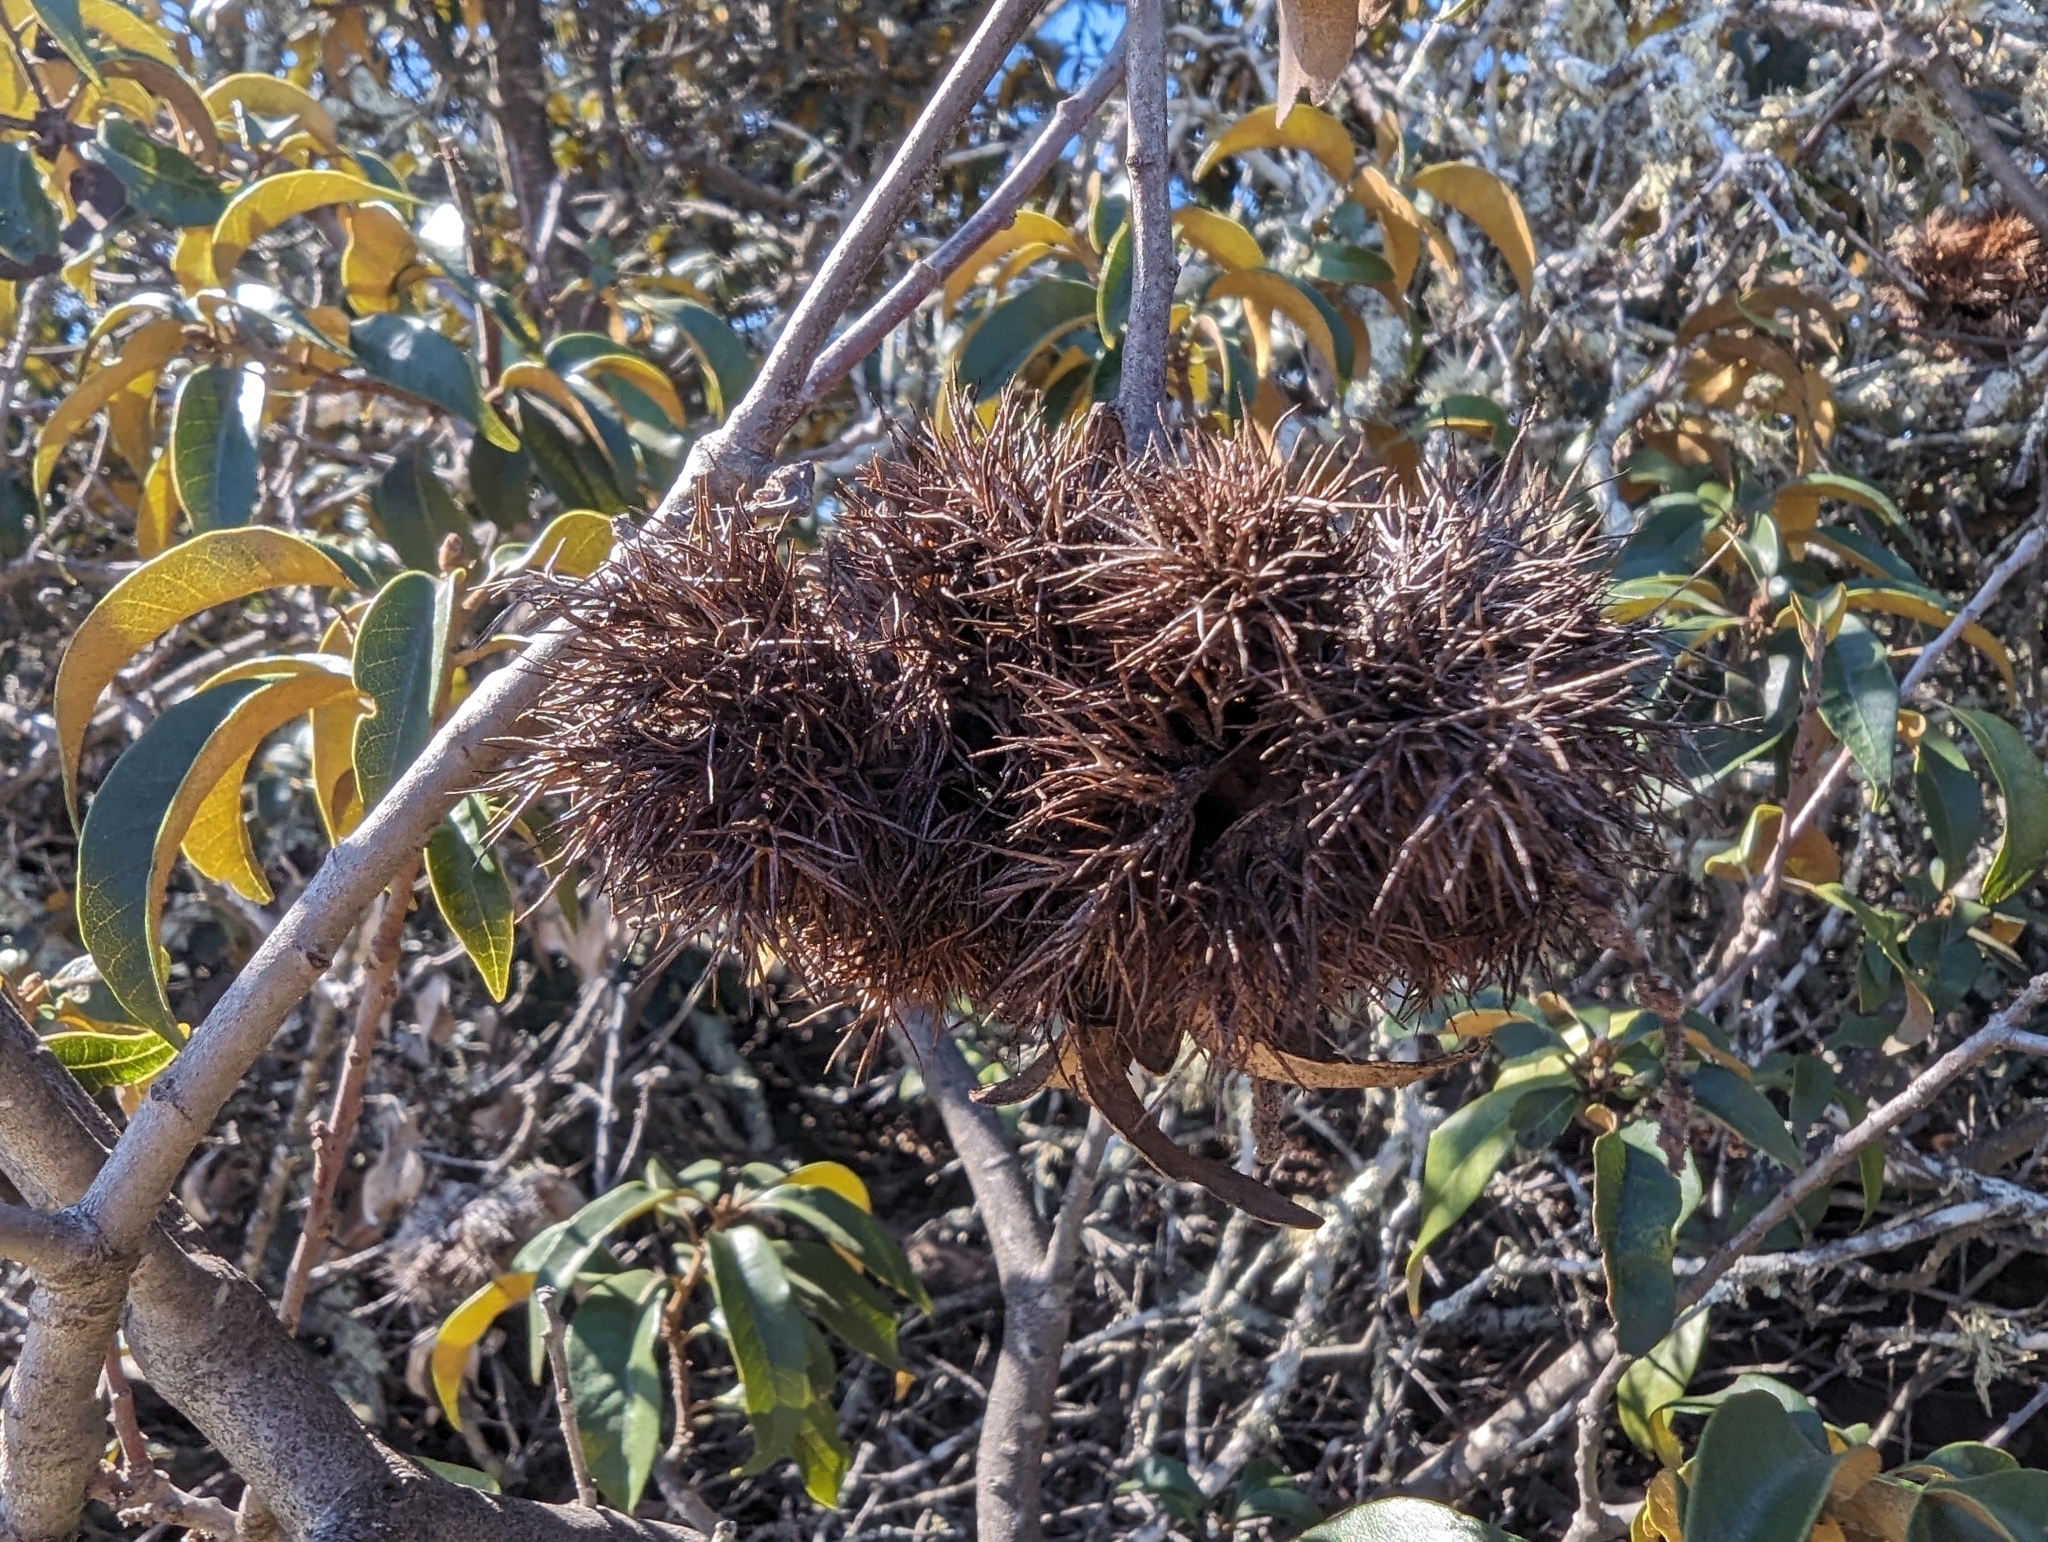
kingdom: Plantae
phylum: Tracheophyta
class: Magnoliopsida
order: Fagales
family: Fagaceae
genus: Chrysolepis
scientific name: Chrysolepis chrysophylla
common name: Giant chinquapin
